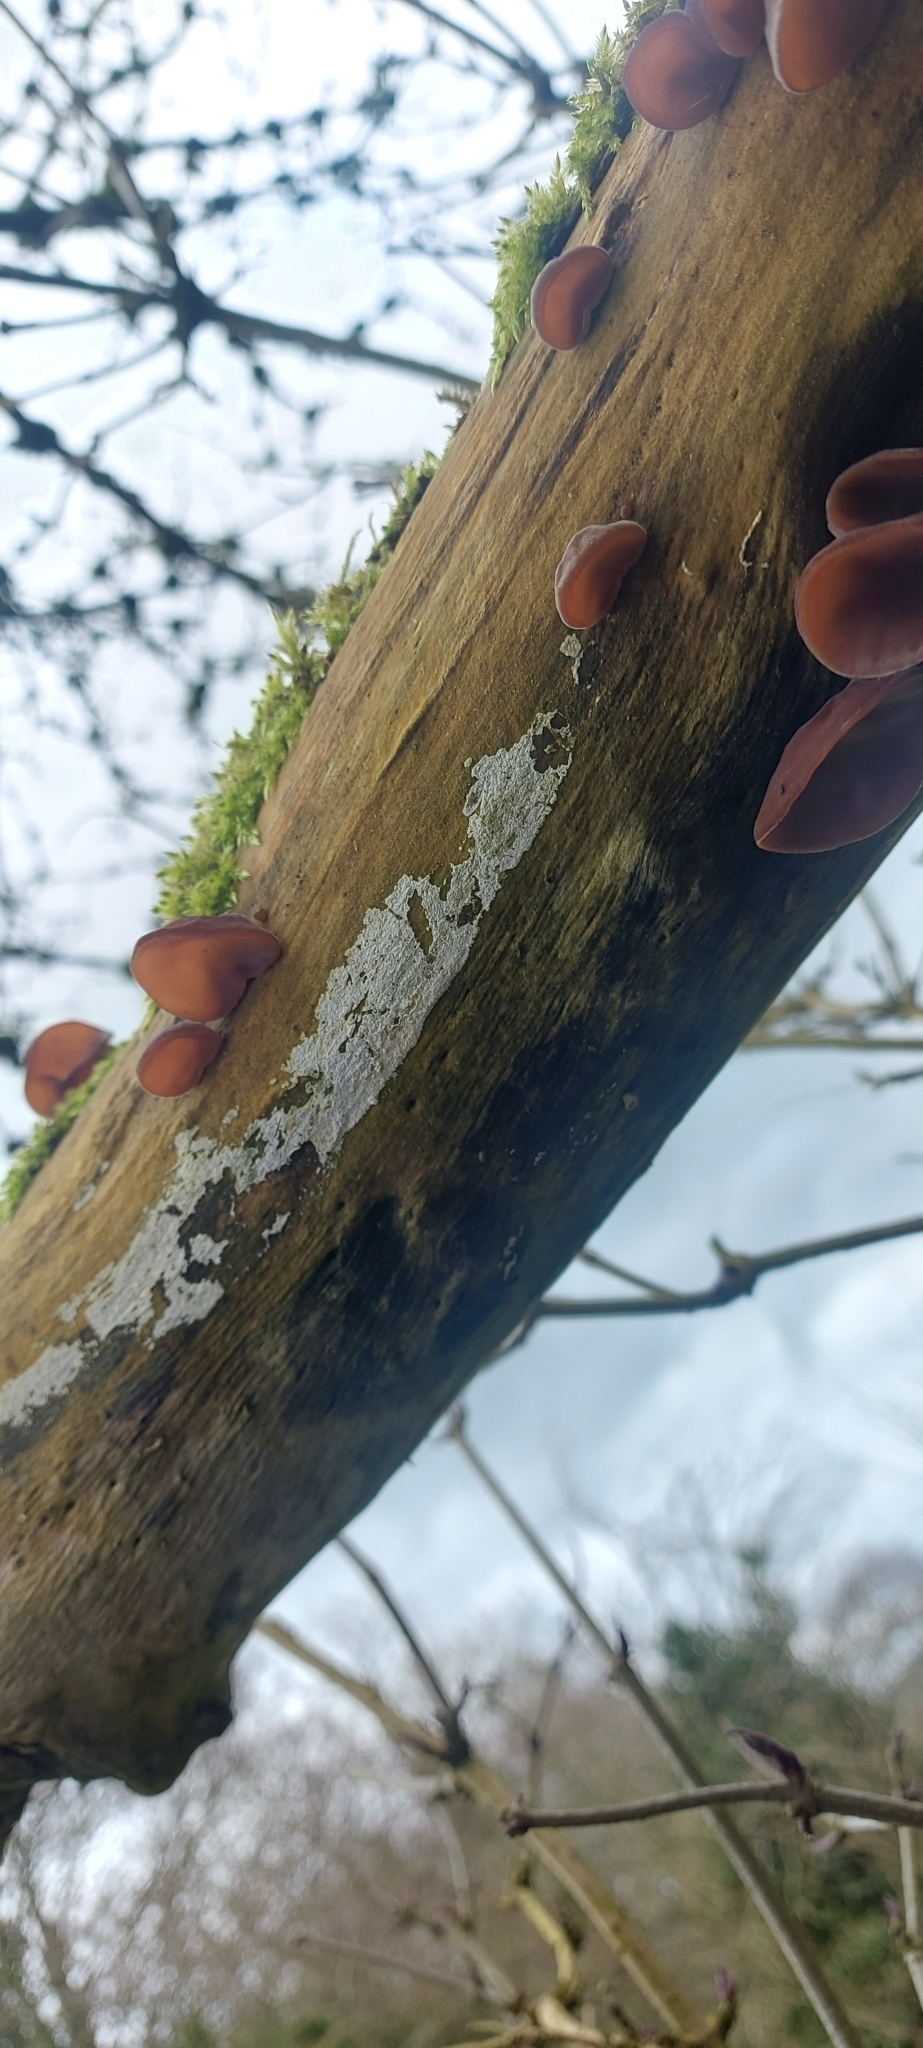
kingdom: Fungi
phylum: Basidiomycota
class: Agaricomycetes
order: Auriculariales
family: Auriculariaceae
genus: Auricularia
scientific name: Auricularia auricula-judae
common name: Jelly ear
